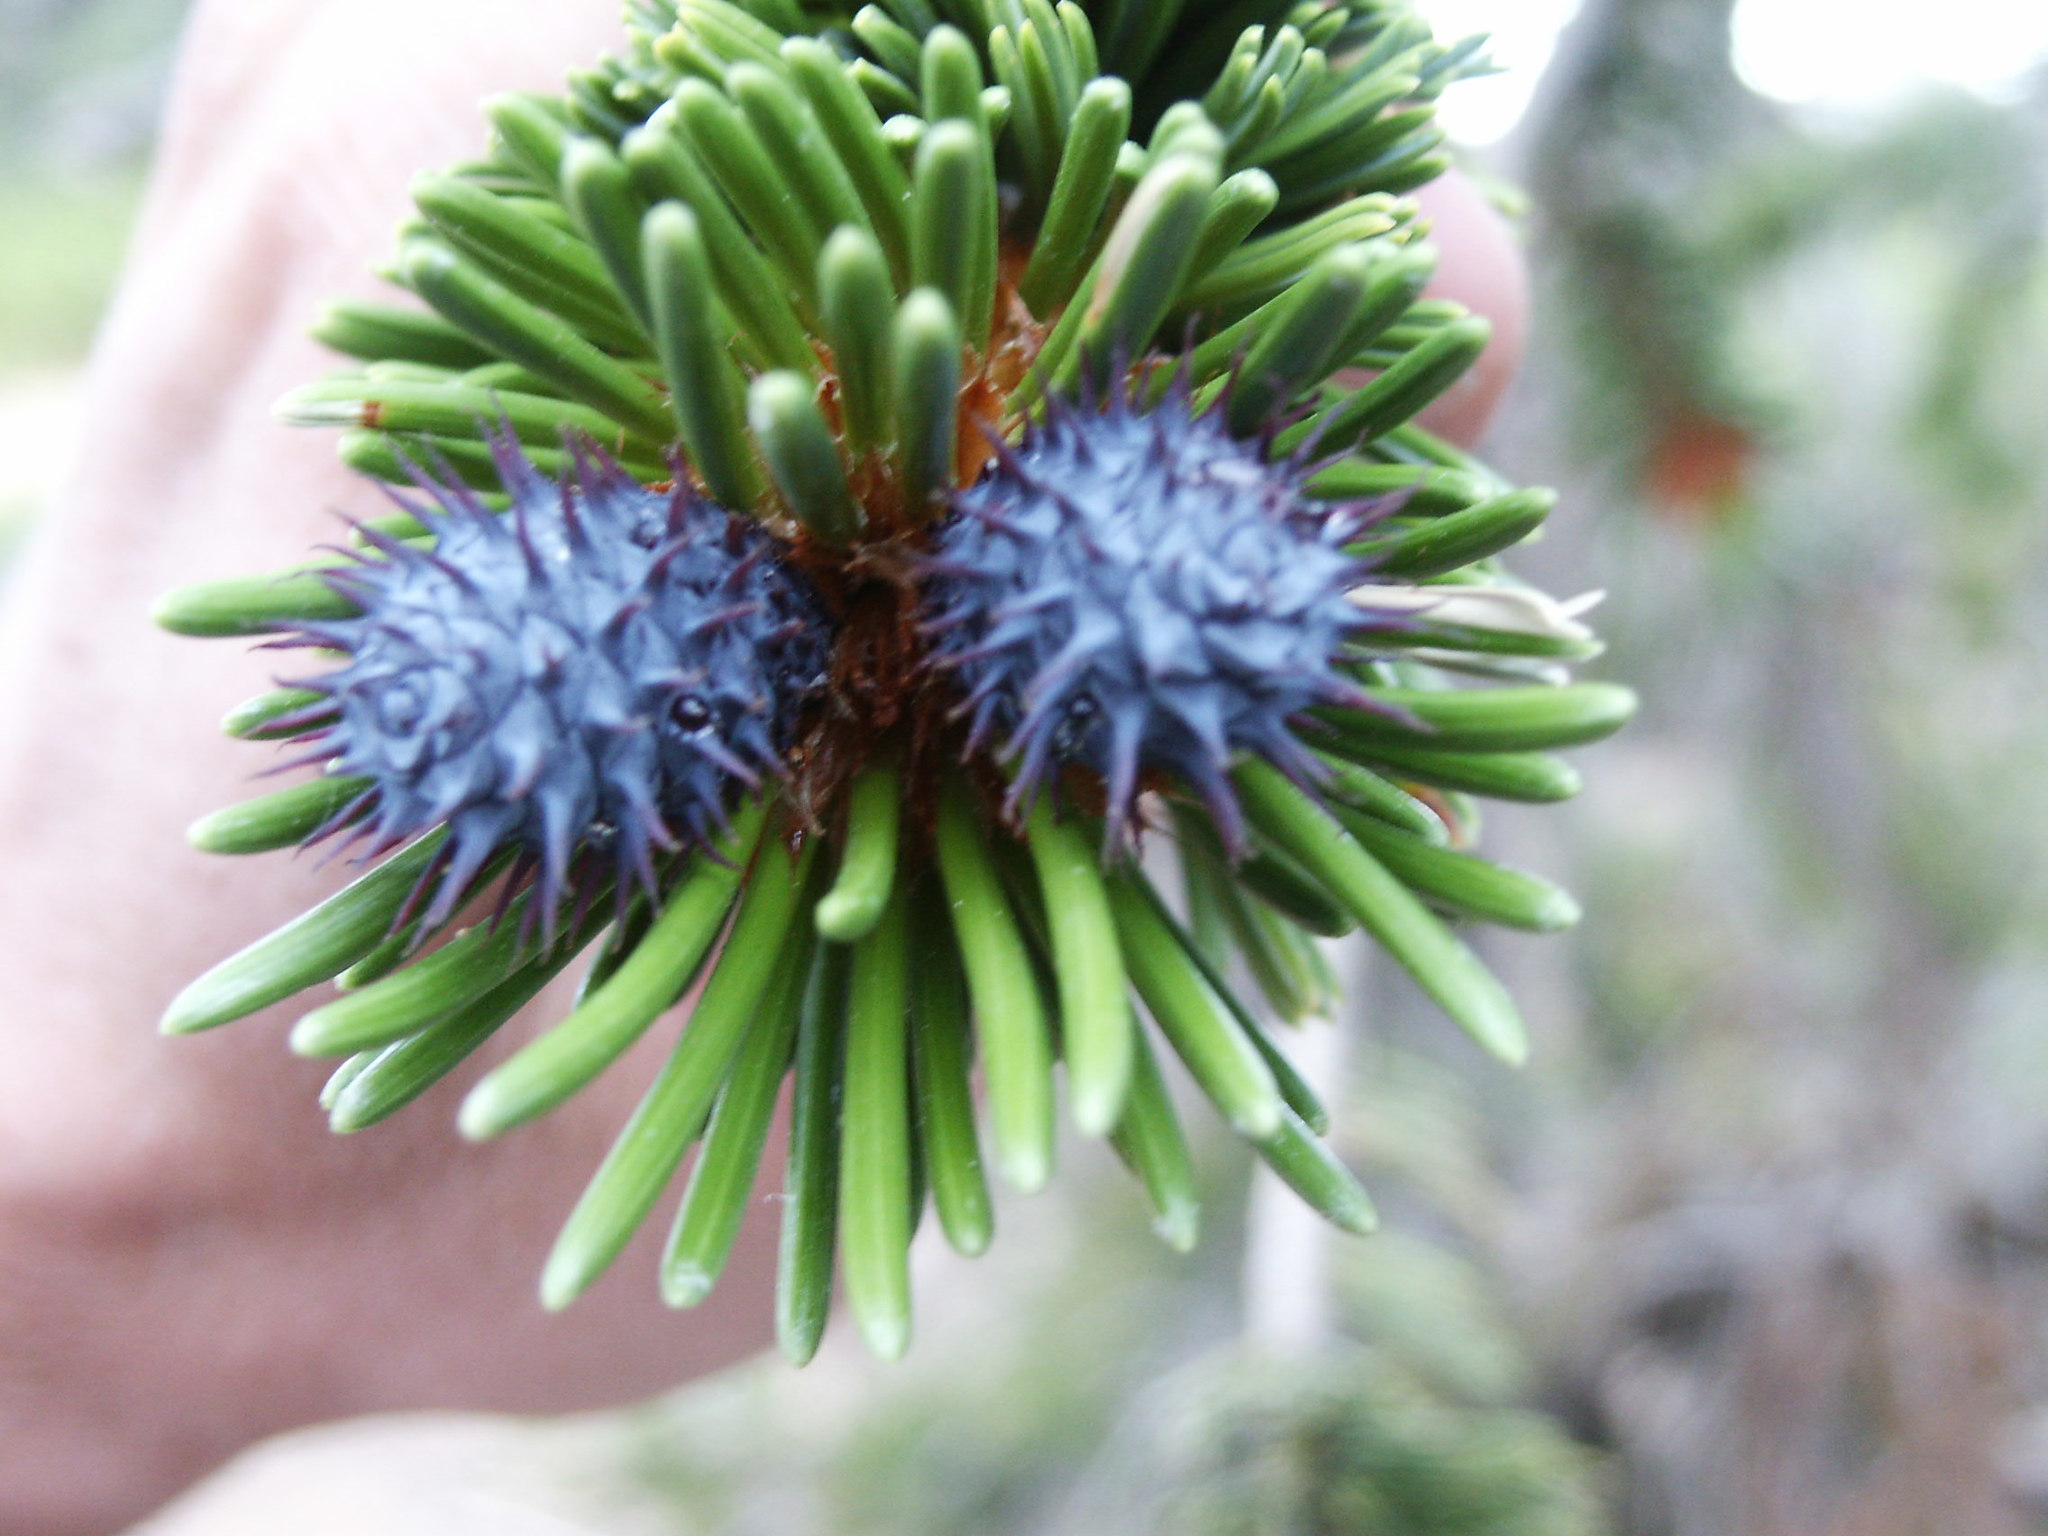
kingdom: Plantae
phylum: Tracheophyta
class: Pinopsida
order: Pinales
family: Pinaceae
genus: Pinus
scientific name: Pinus longaeva
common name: Intermountain bristlecone pine
